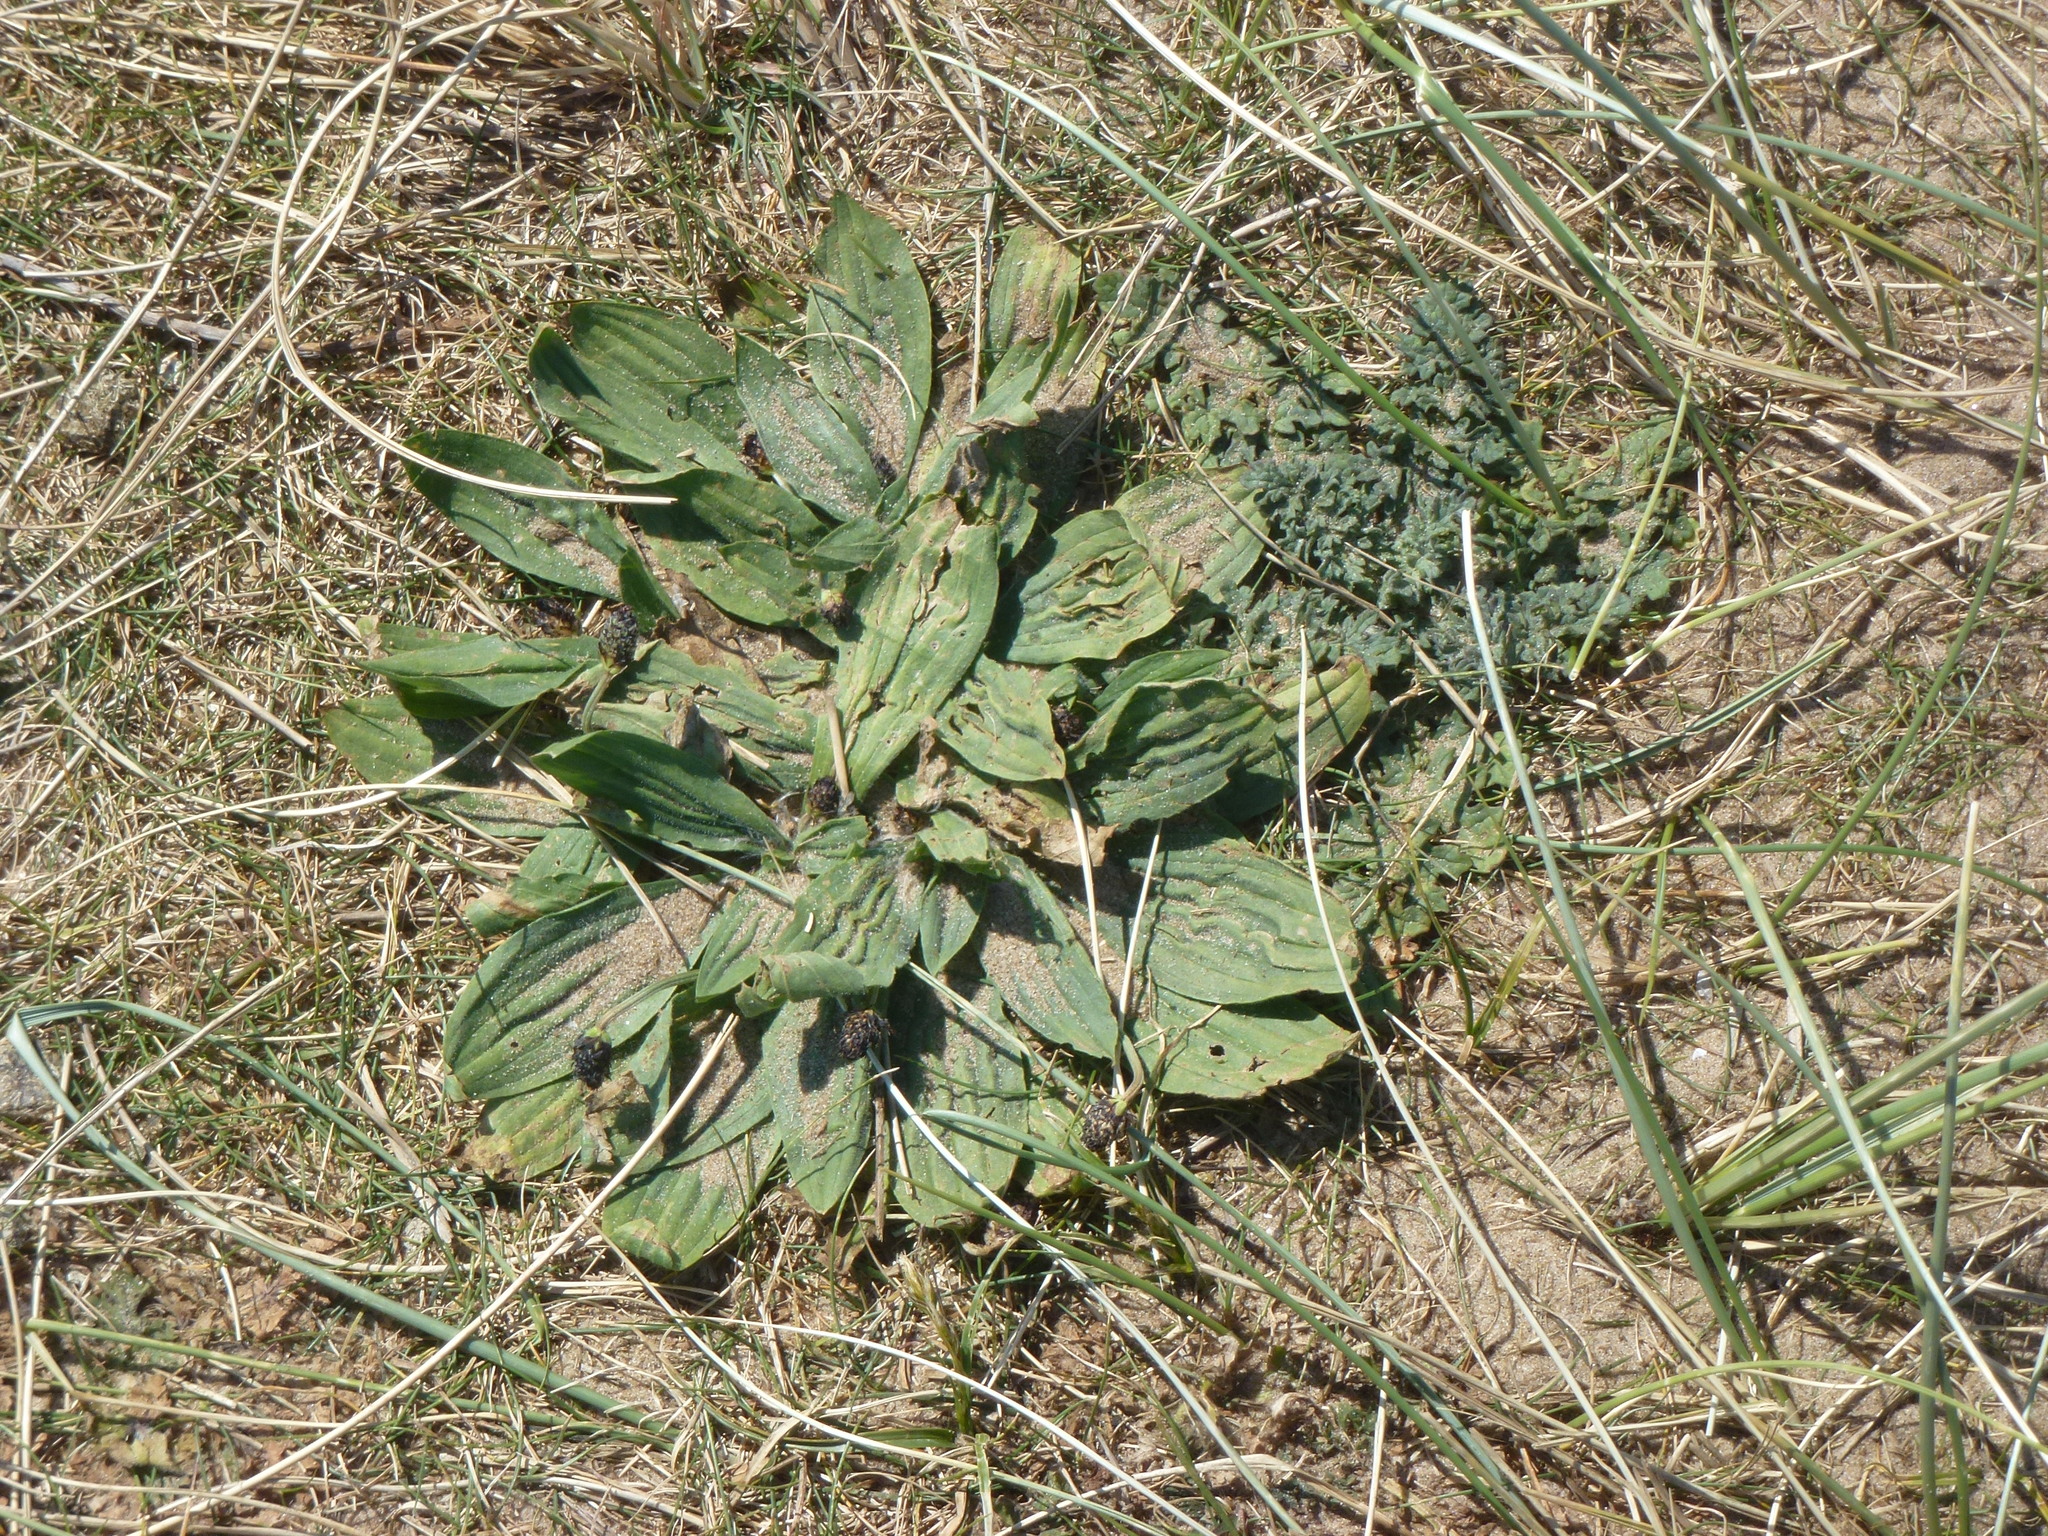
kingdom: Plantae
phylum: Tracheophyta
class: Magnoliopsida
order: Lamiales
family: Plantaginaceae
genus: Plantago
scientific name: Plantago lanceolata
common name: Ribwort plantain
